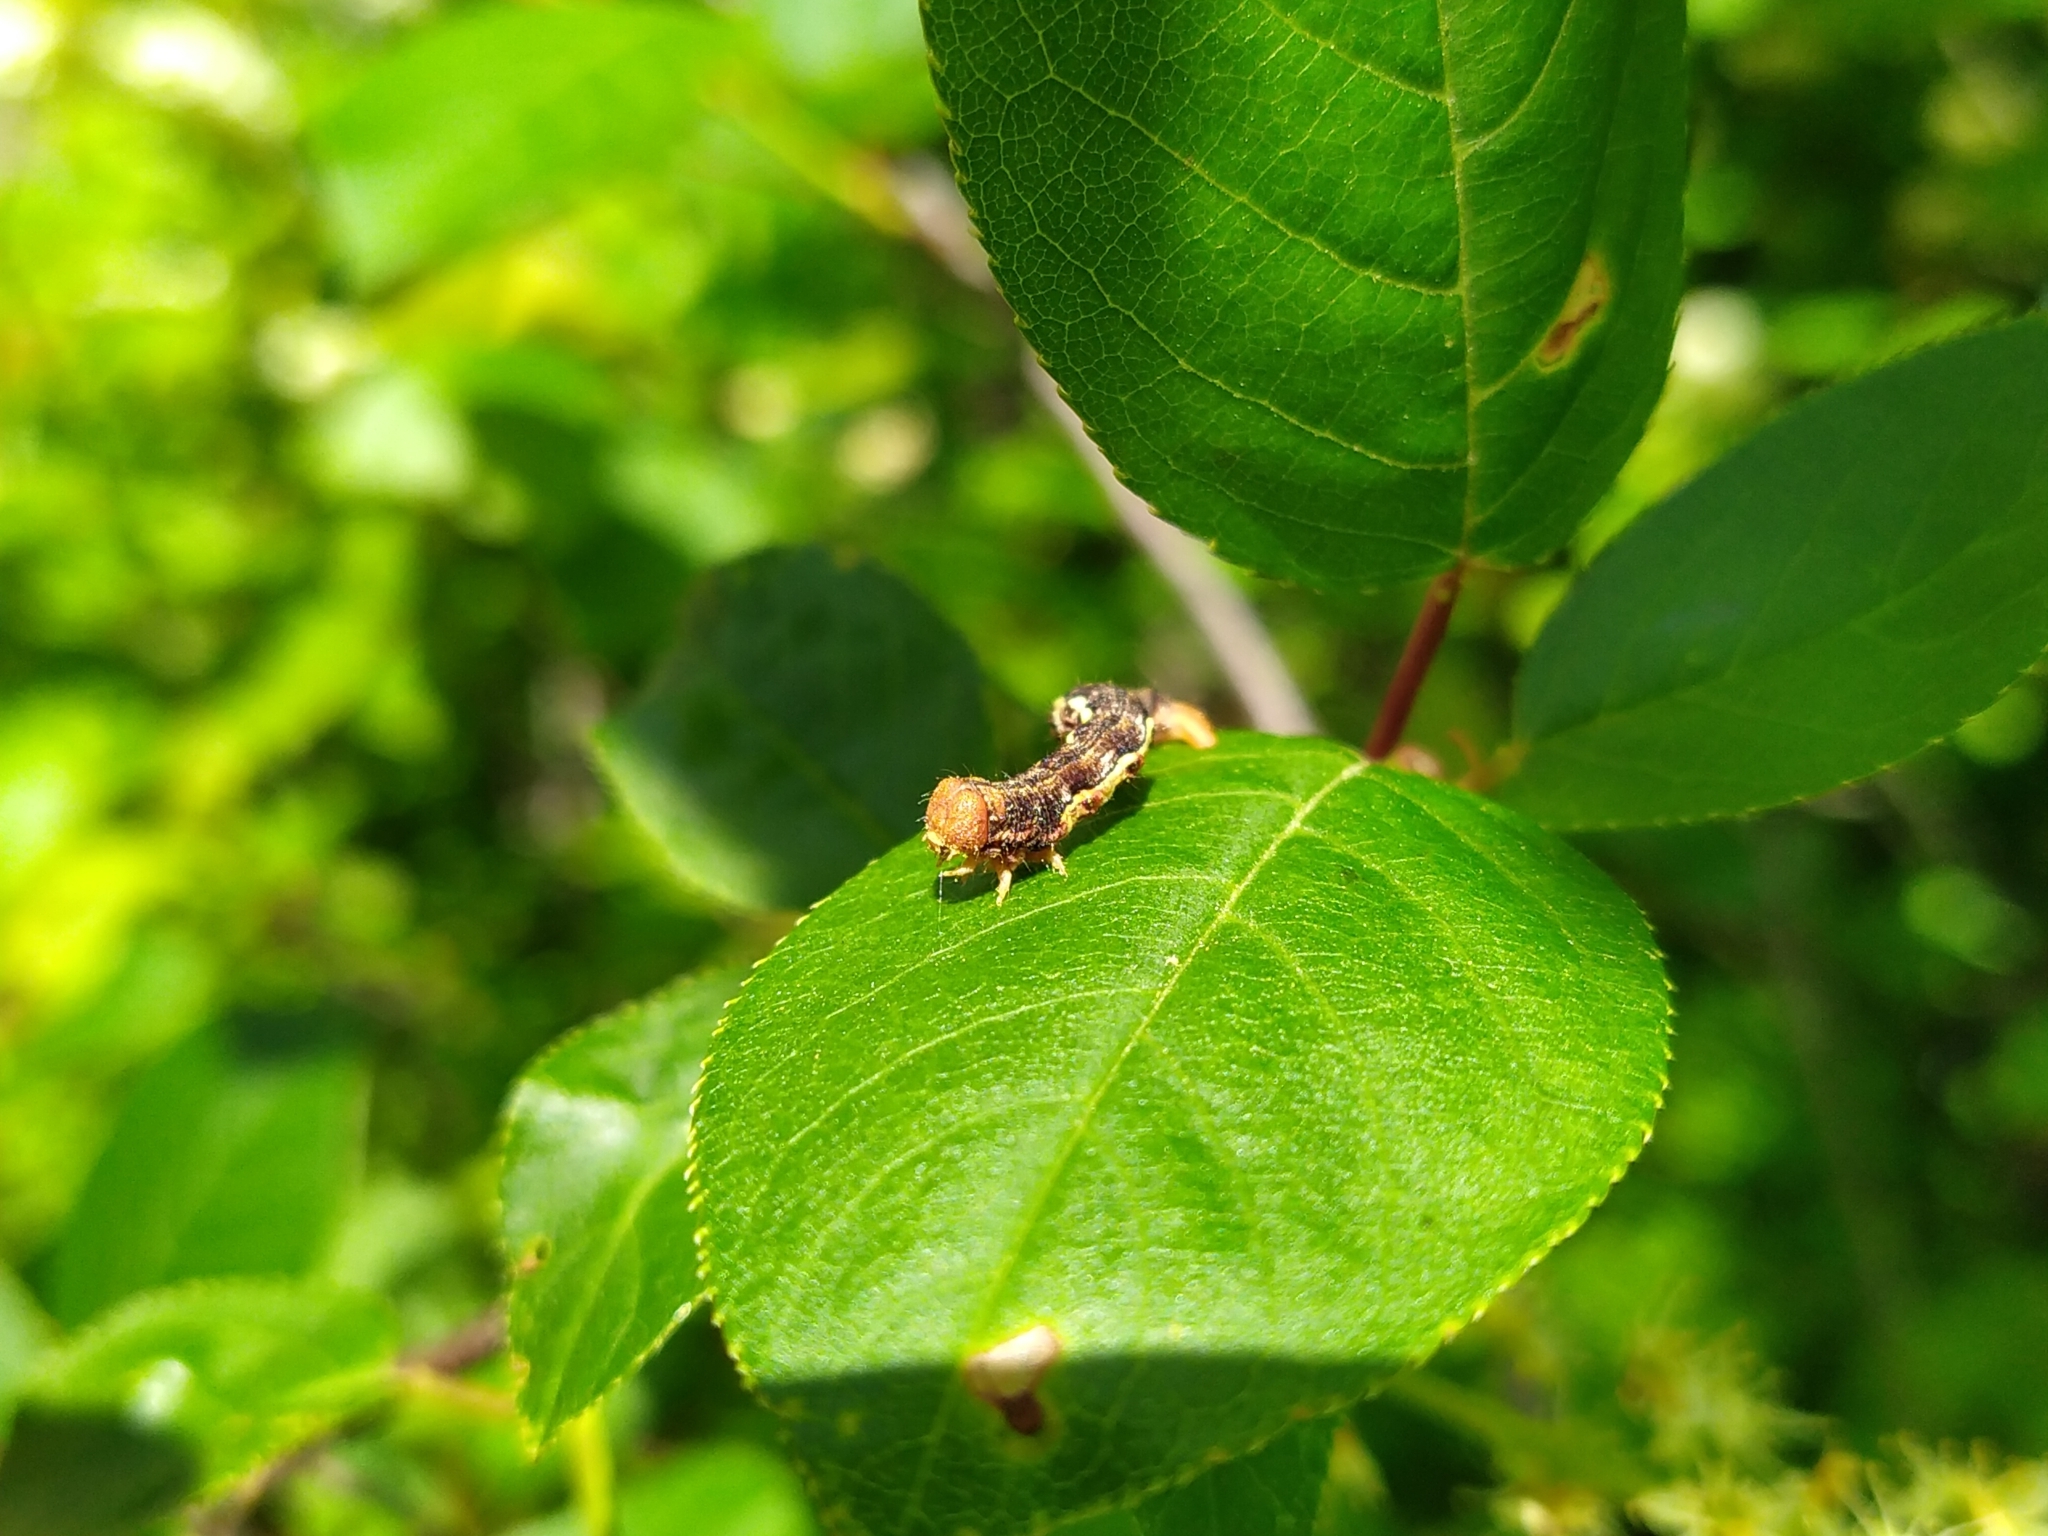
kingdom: Animalia
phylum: Arthropoda
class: Insecta
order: Lepidoptera
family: Geometridae
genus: Erannis
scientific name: Erannis defoliaria
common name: Mottled umber
